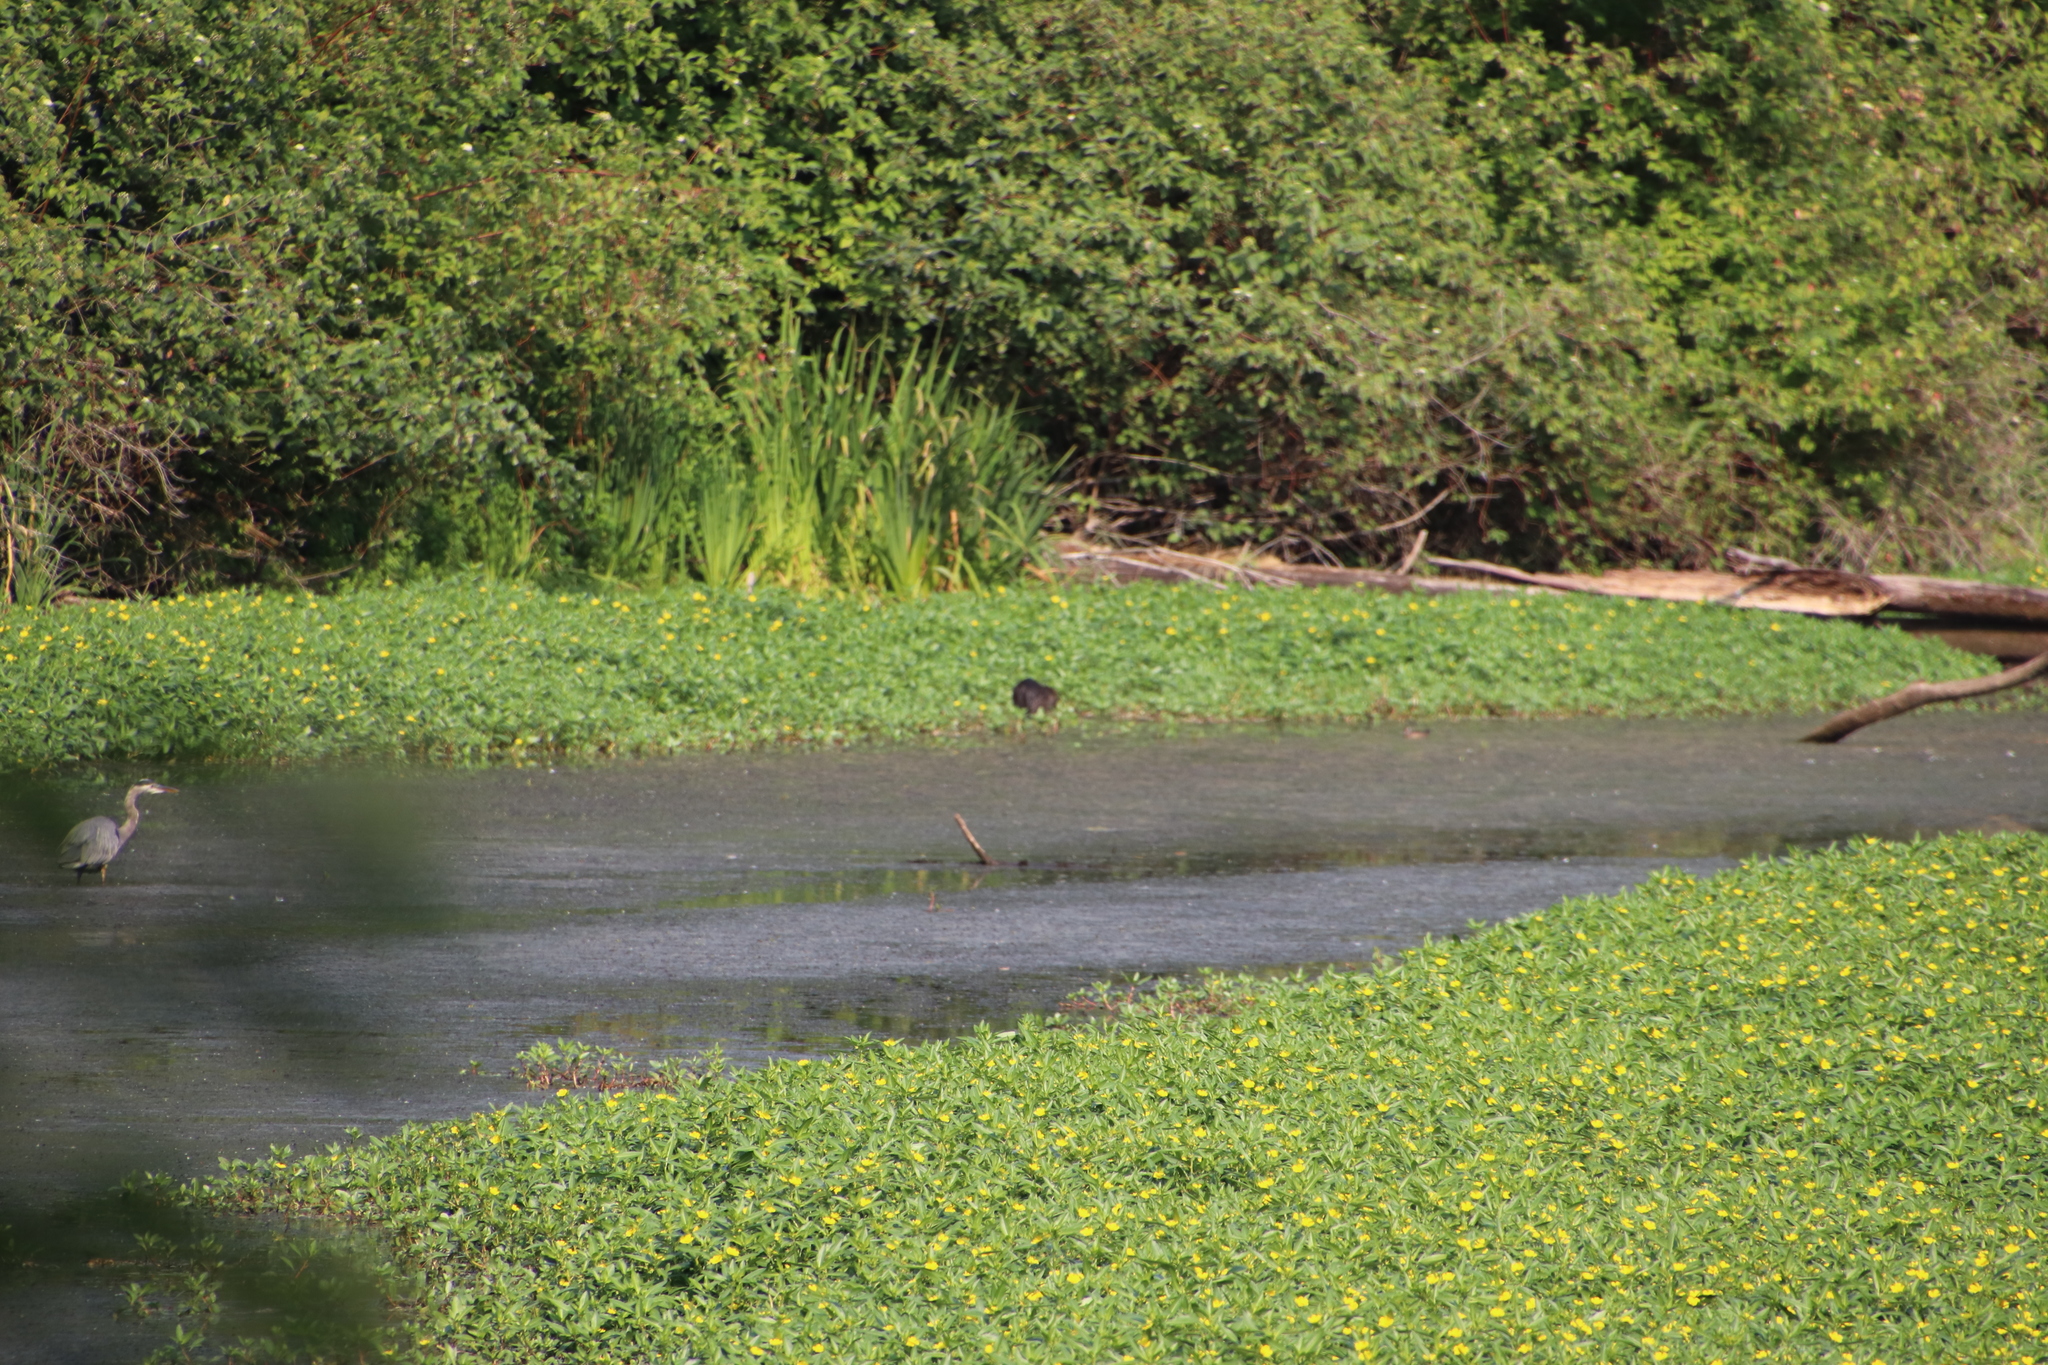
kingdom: Animalia
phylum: Chordata
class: Mammalia
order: Rodentia
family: Myocastoridae
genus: Myocastor
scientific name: Myocastor coypus
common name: Coypu
